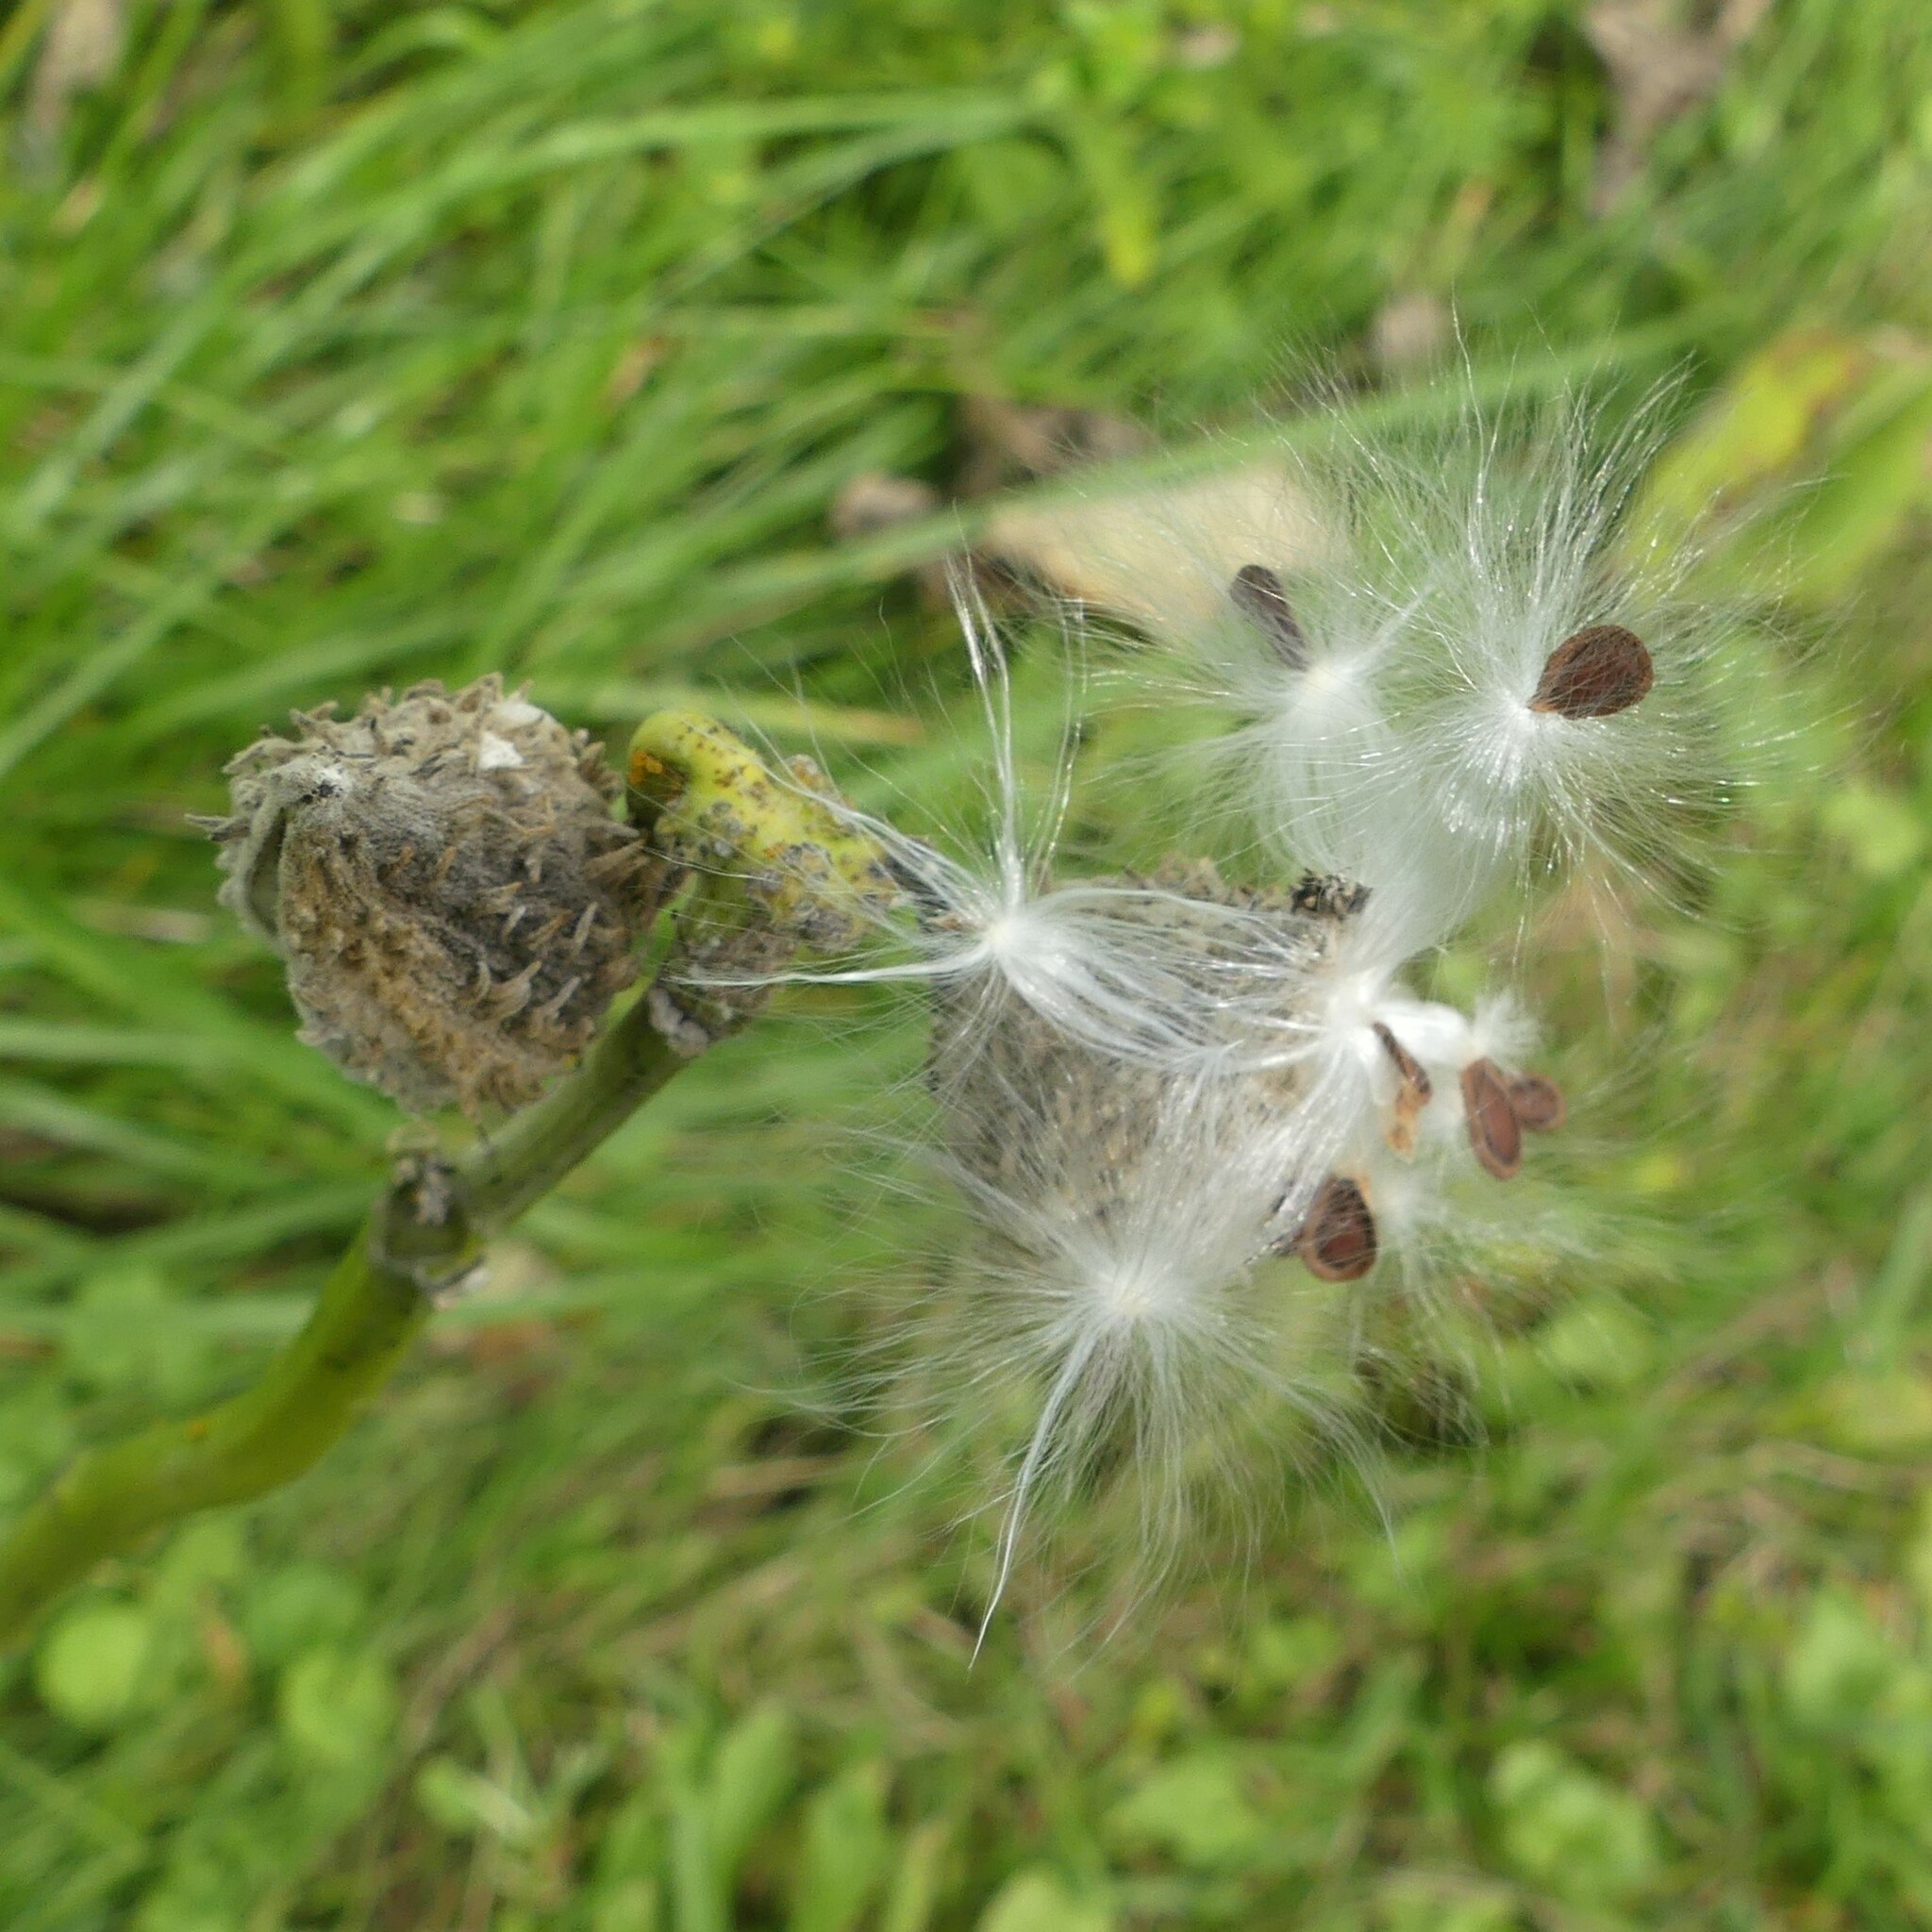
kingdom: Plantae
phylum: Tracheophyta
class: Magnoliopsida
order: Gentianales
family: Apocynaceae
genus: Asclepias
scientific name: Asclepias syriaca
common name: Common milkweed
